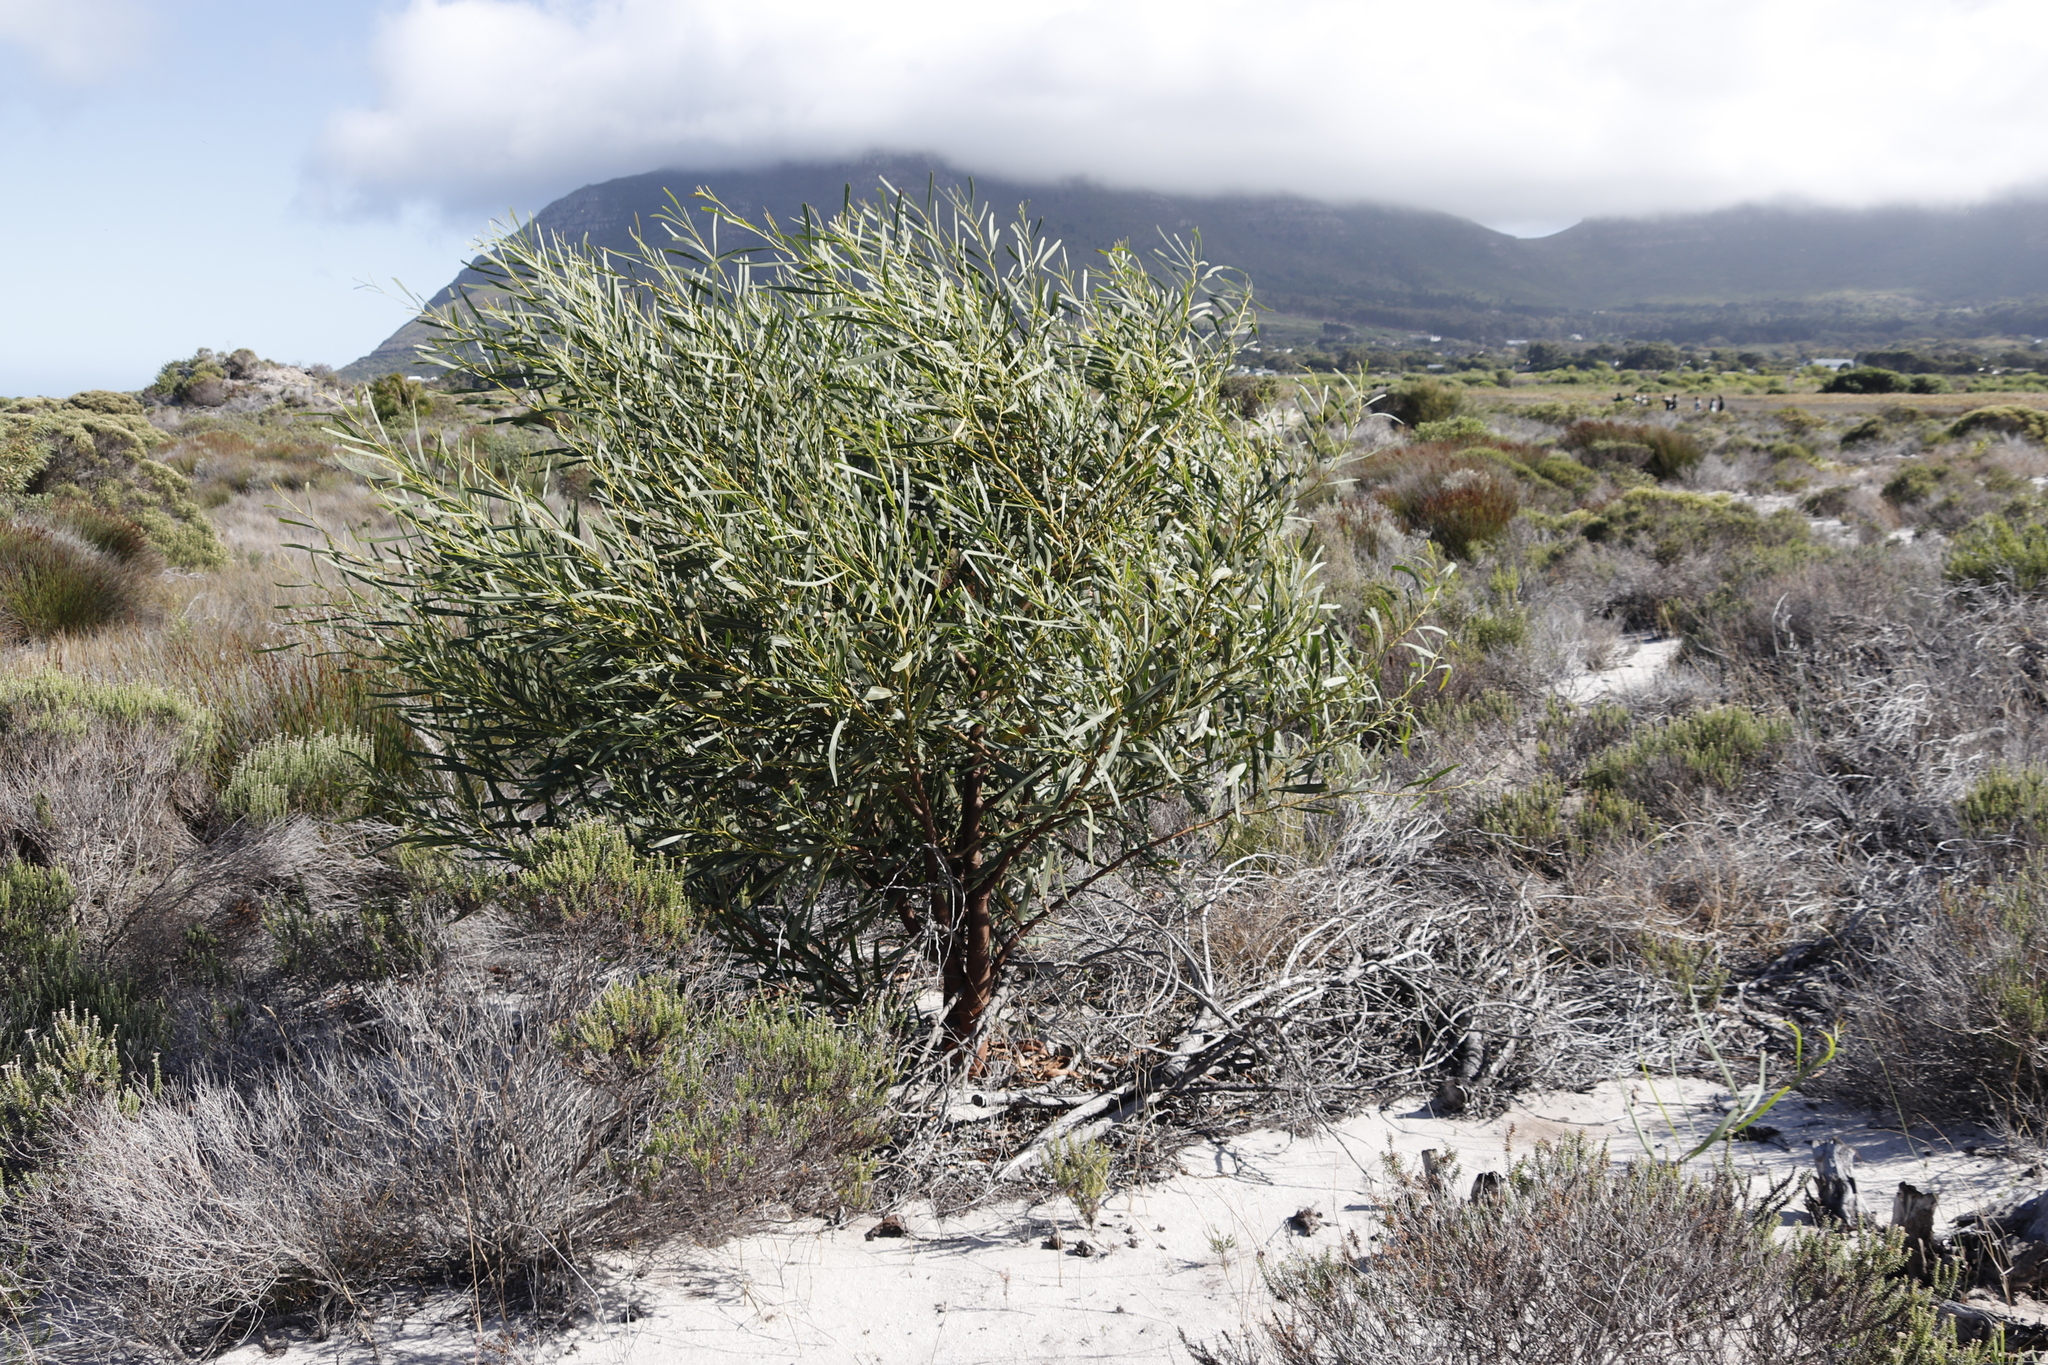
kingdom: Plantae
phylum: Tracheophyta
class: Magnoliopsida
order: Fabales
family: Fabaceae
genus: Acacia
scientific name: Acacia saligna
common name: Orange wattle
